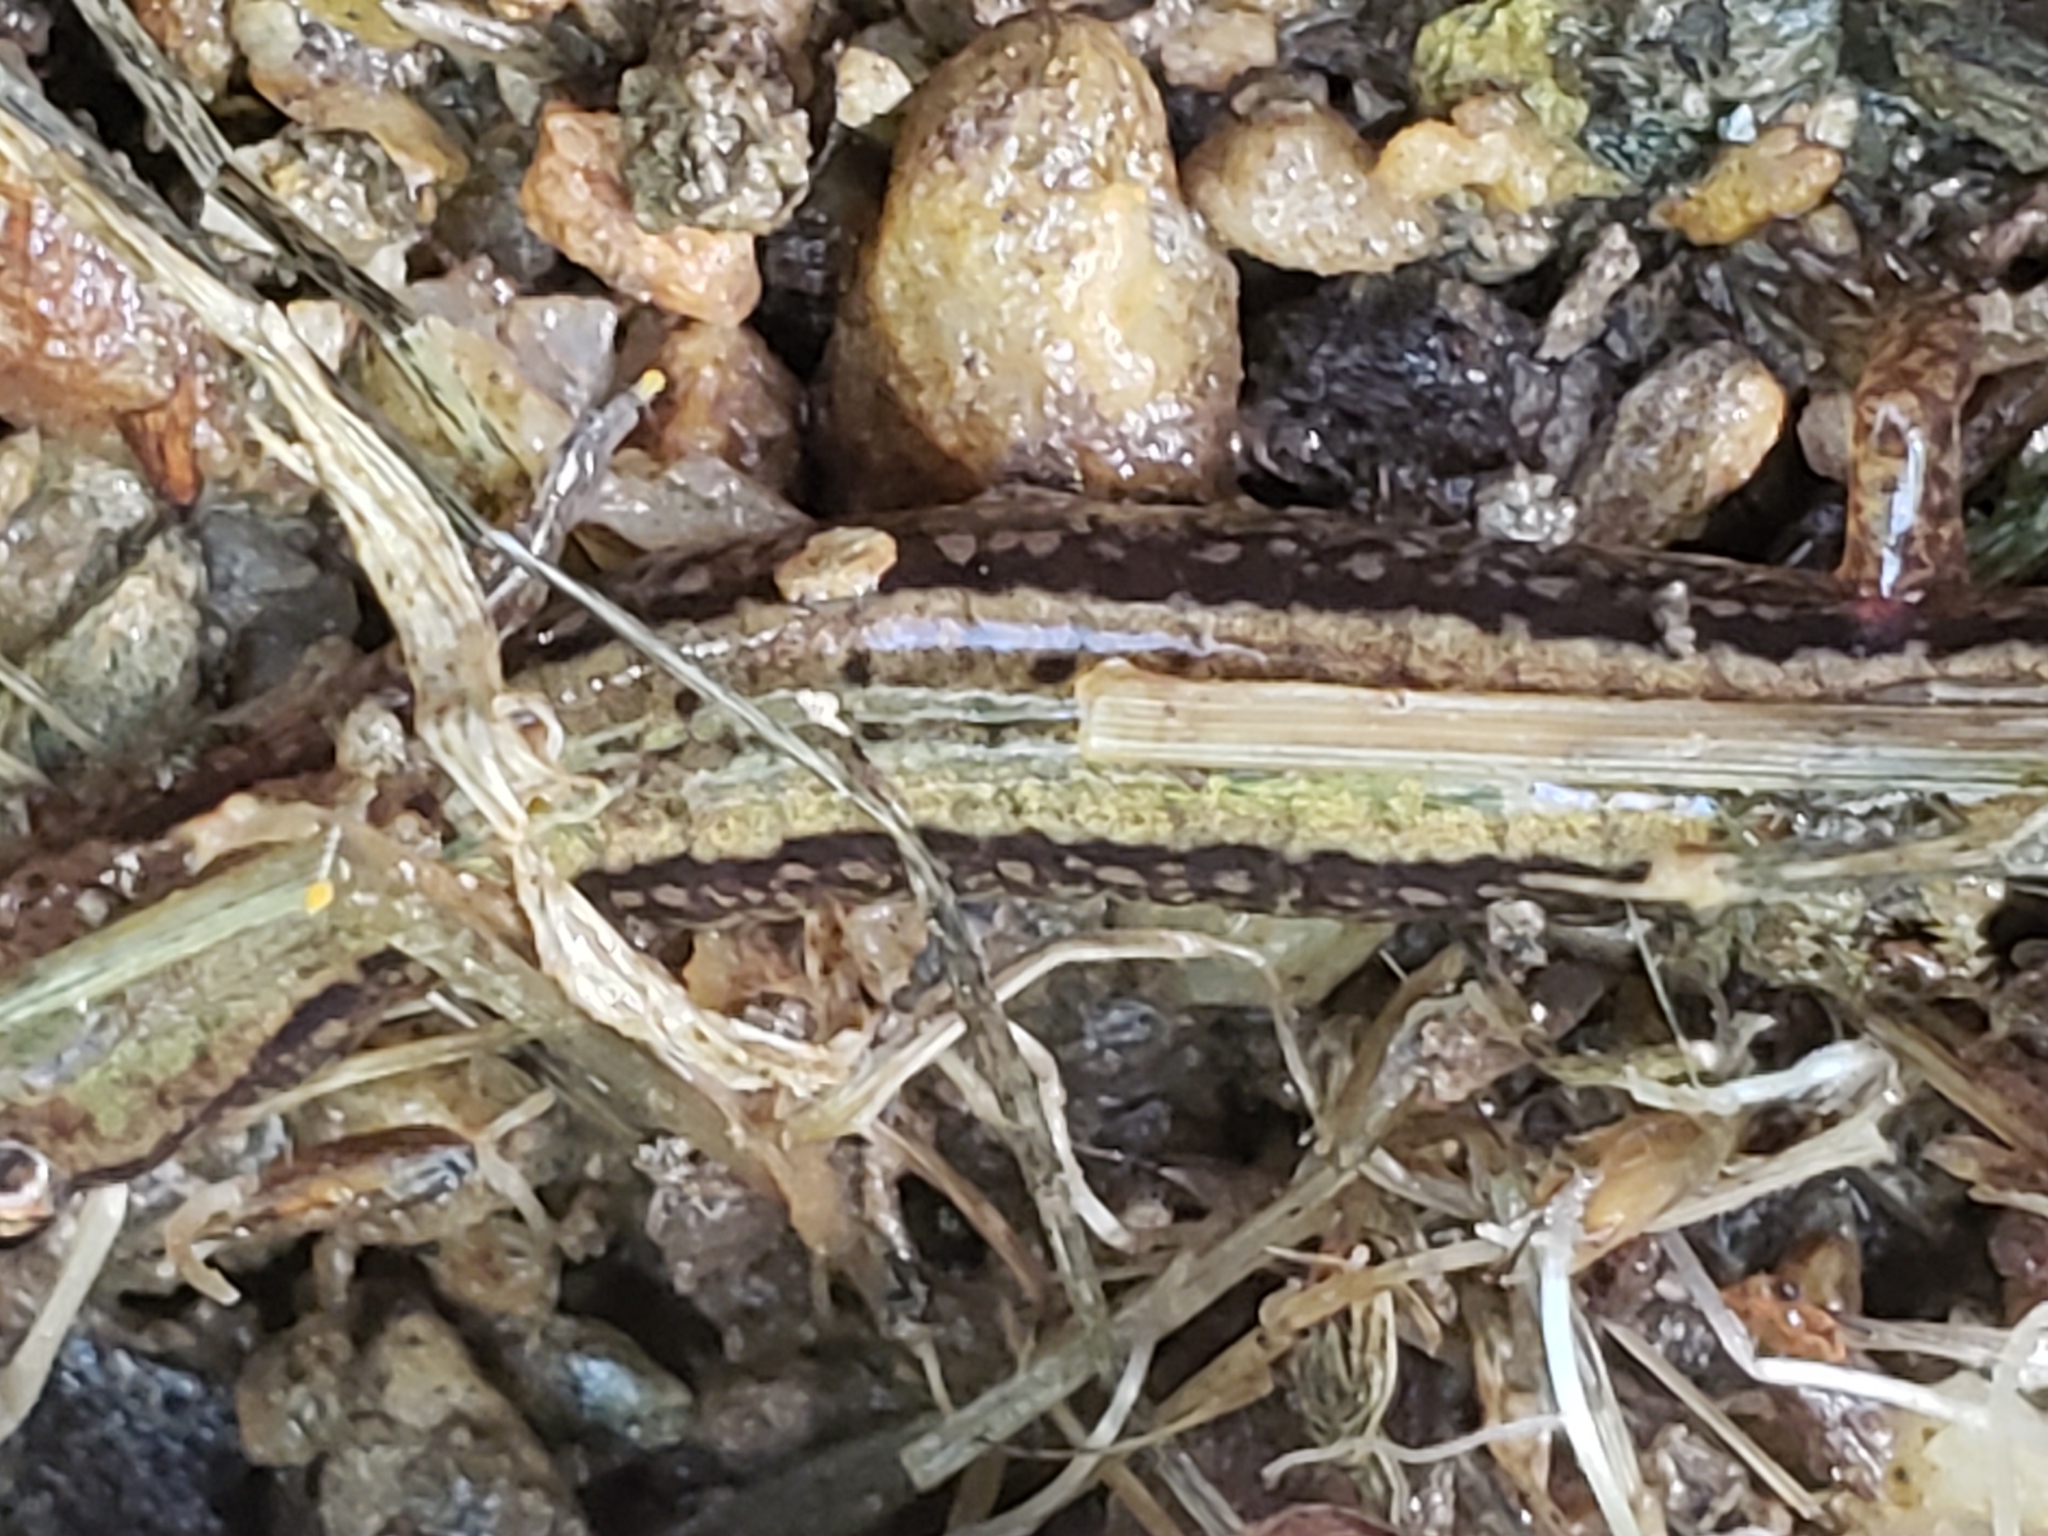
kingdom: Animalia
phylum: Chordata
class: Amphibia
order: Caudata
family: Plethodontidae
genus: Eurycea
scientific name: Eurycea bislineata
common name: Northern two-lined salamander
